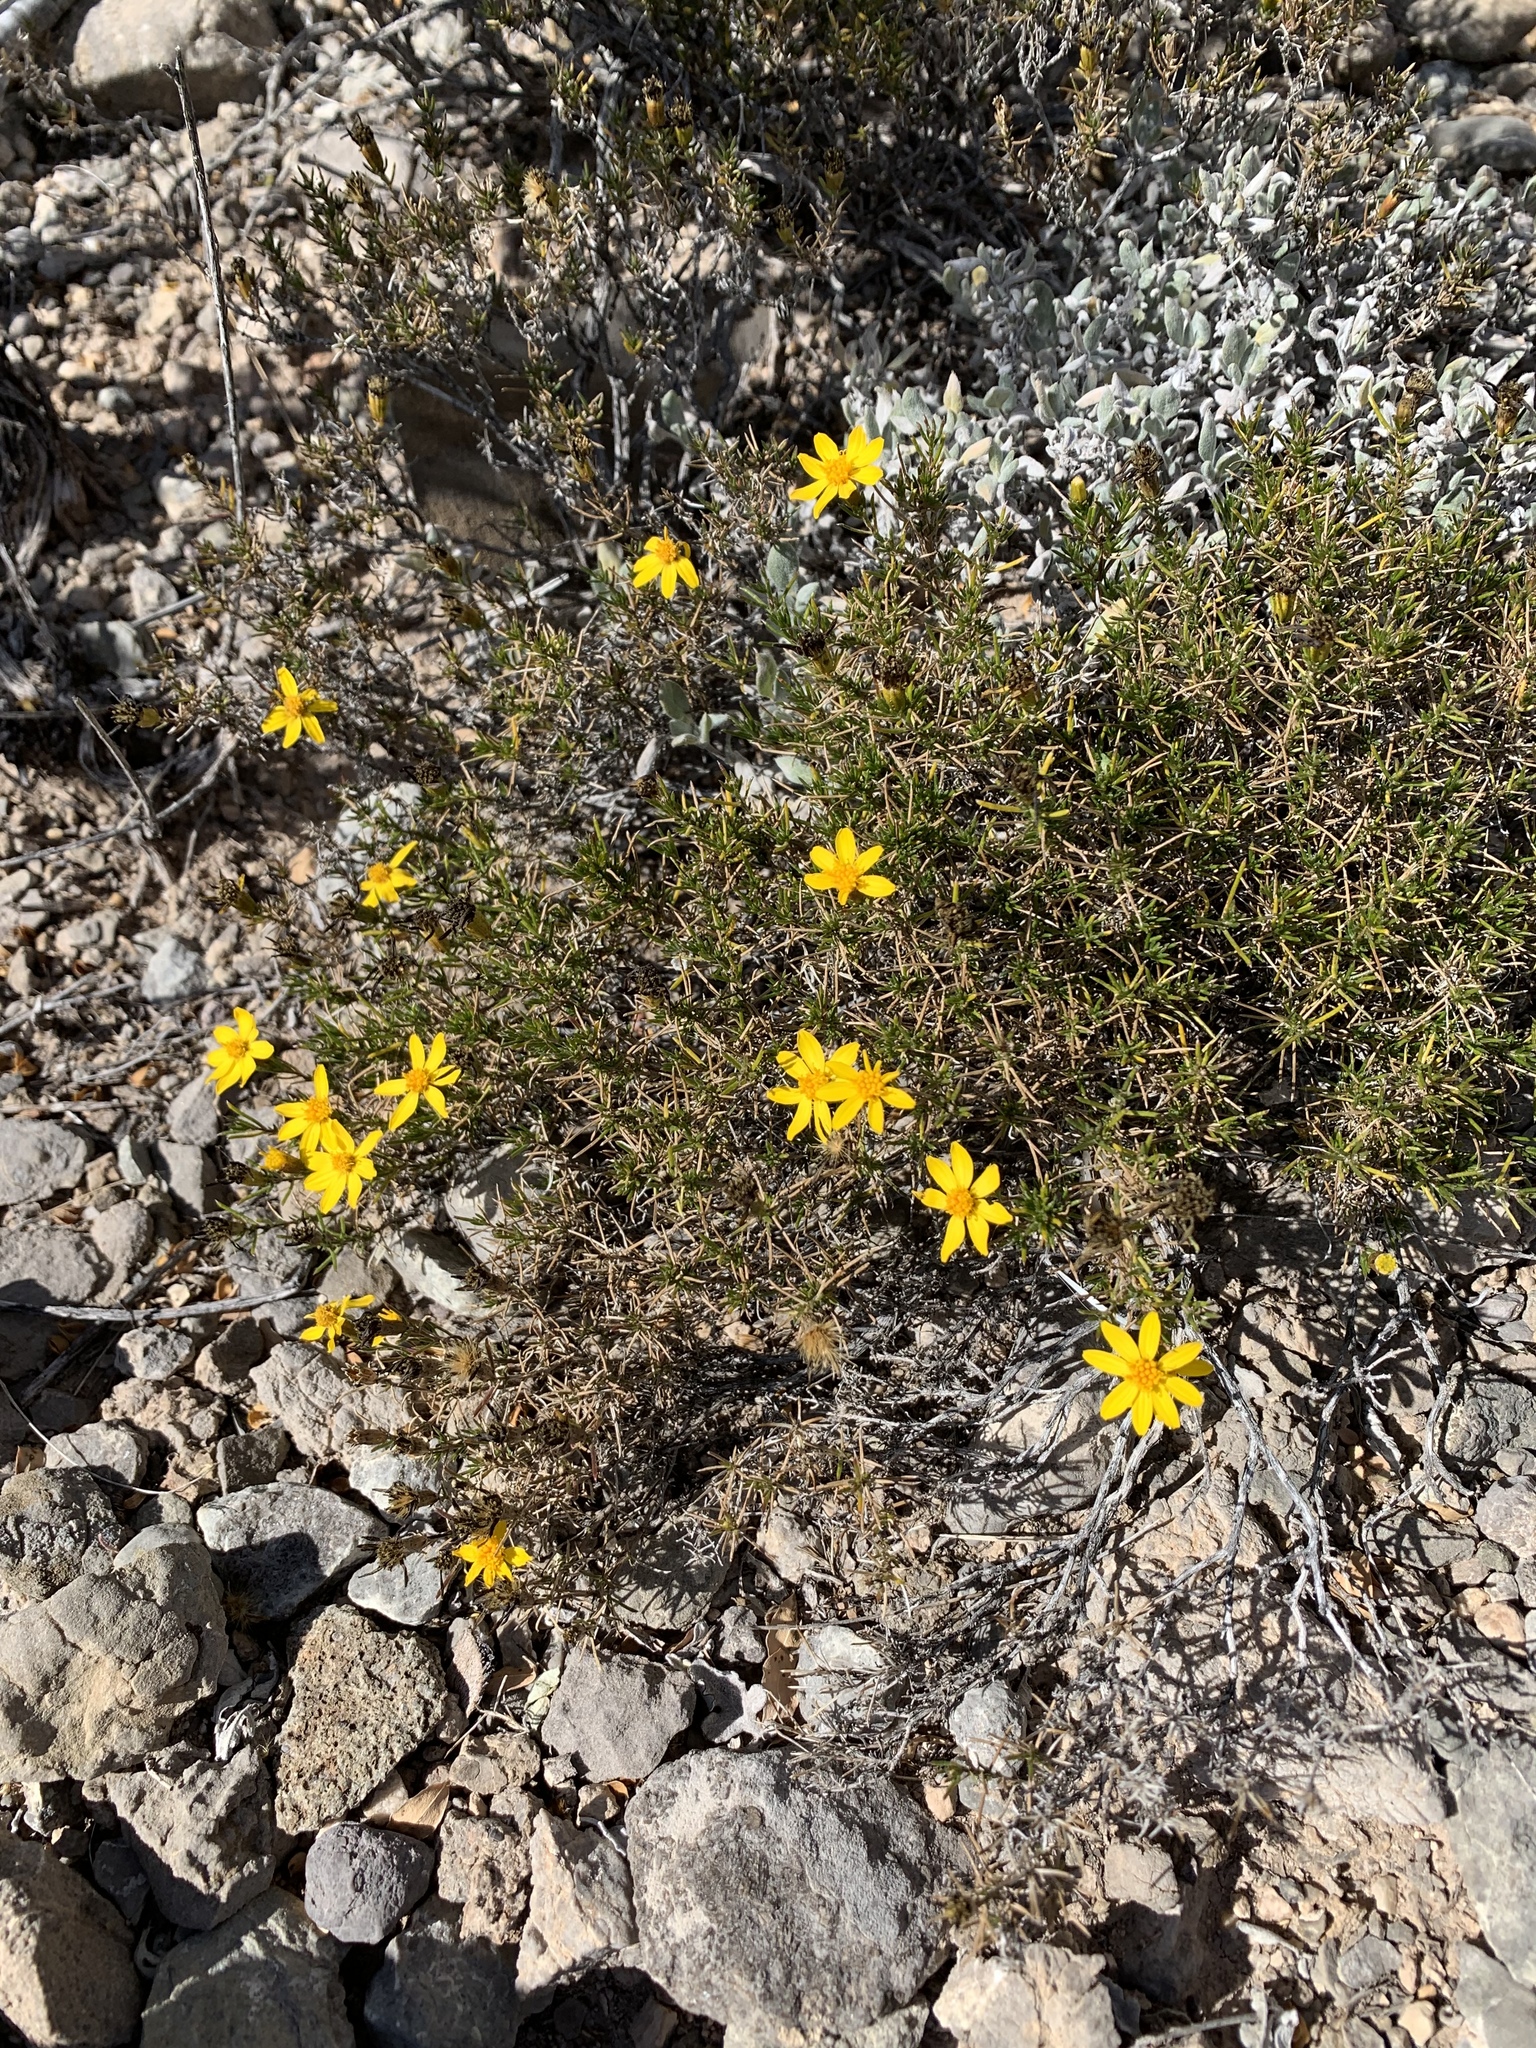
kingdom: Plantae
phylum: Tracheophyta
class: Magnoliopsida
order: Asterales
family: Asteraceae
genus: Thymophylla
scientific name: Thymophylla acerosa
